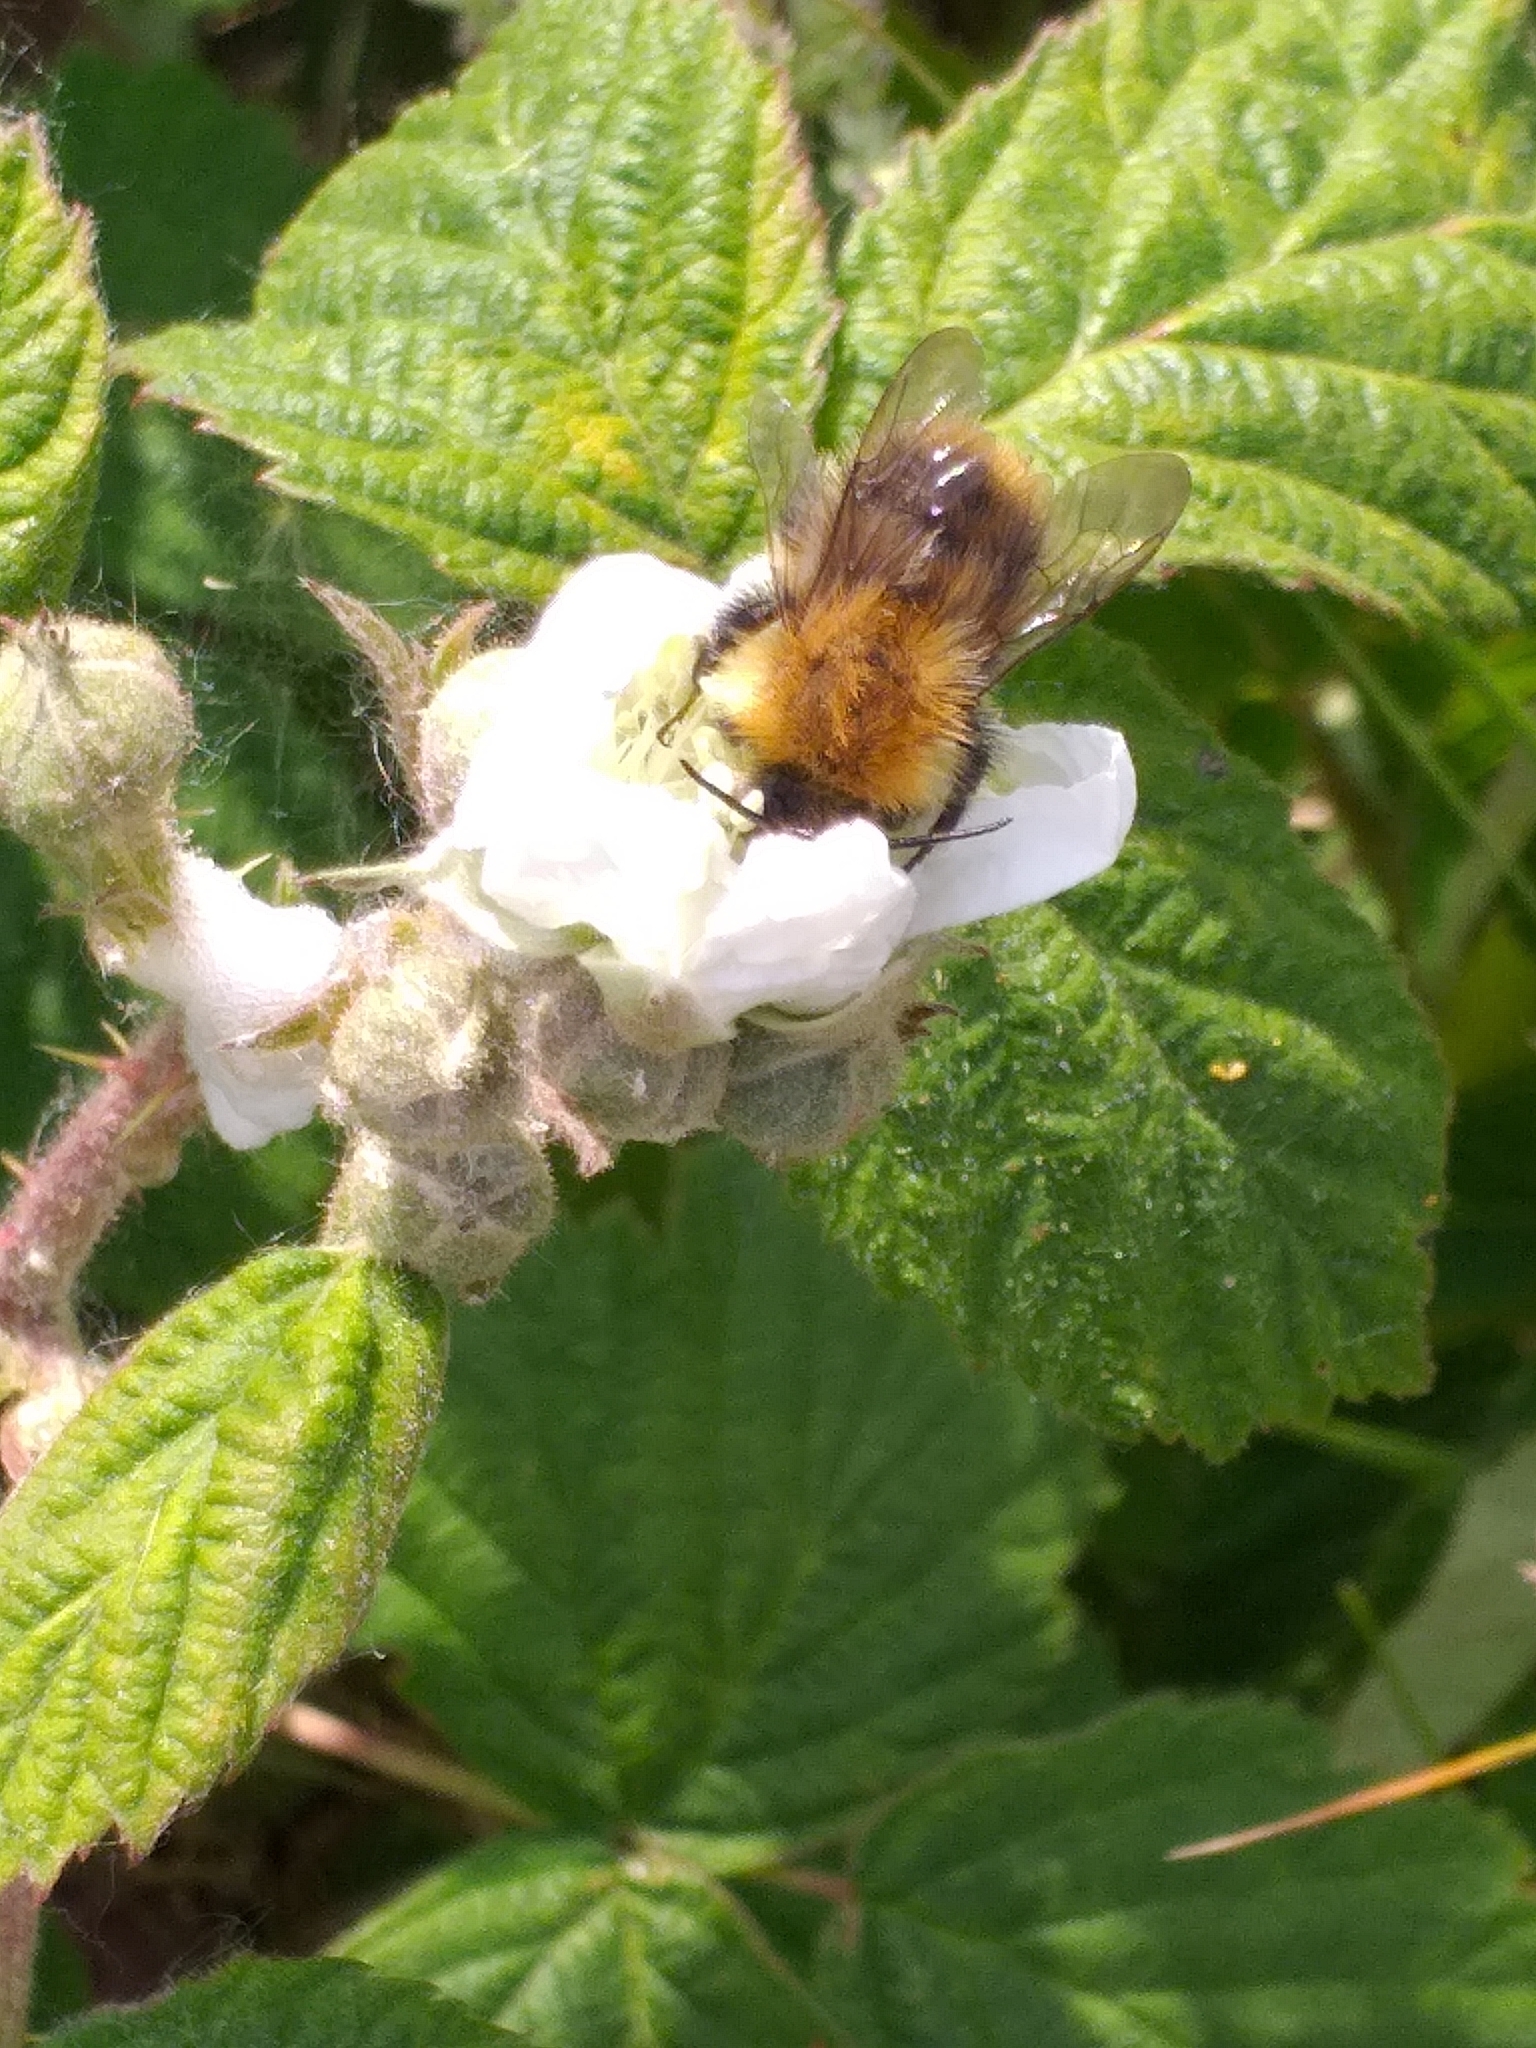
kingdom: Animalia
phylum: Arthropoda
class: Insecta
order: Hymenoptera
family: Apidae
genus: Bombus
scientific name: Bombus pascuorum
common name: Common carder bee
